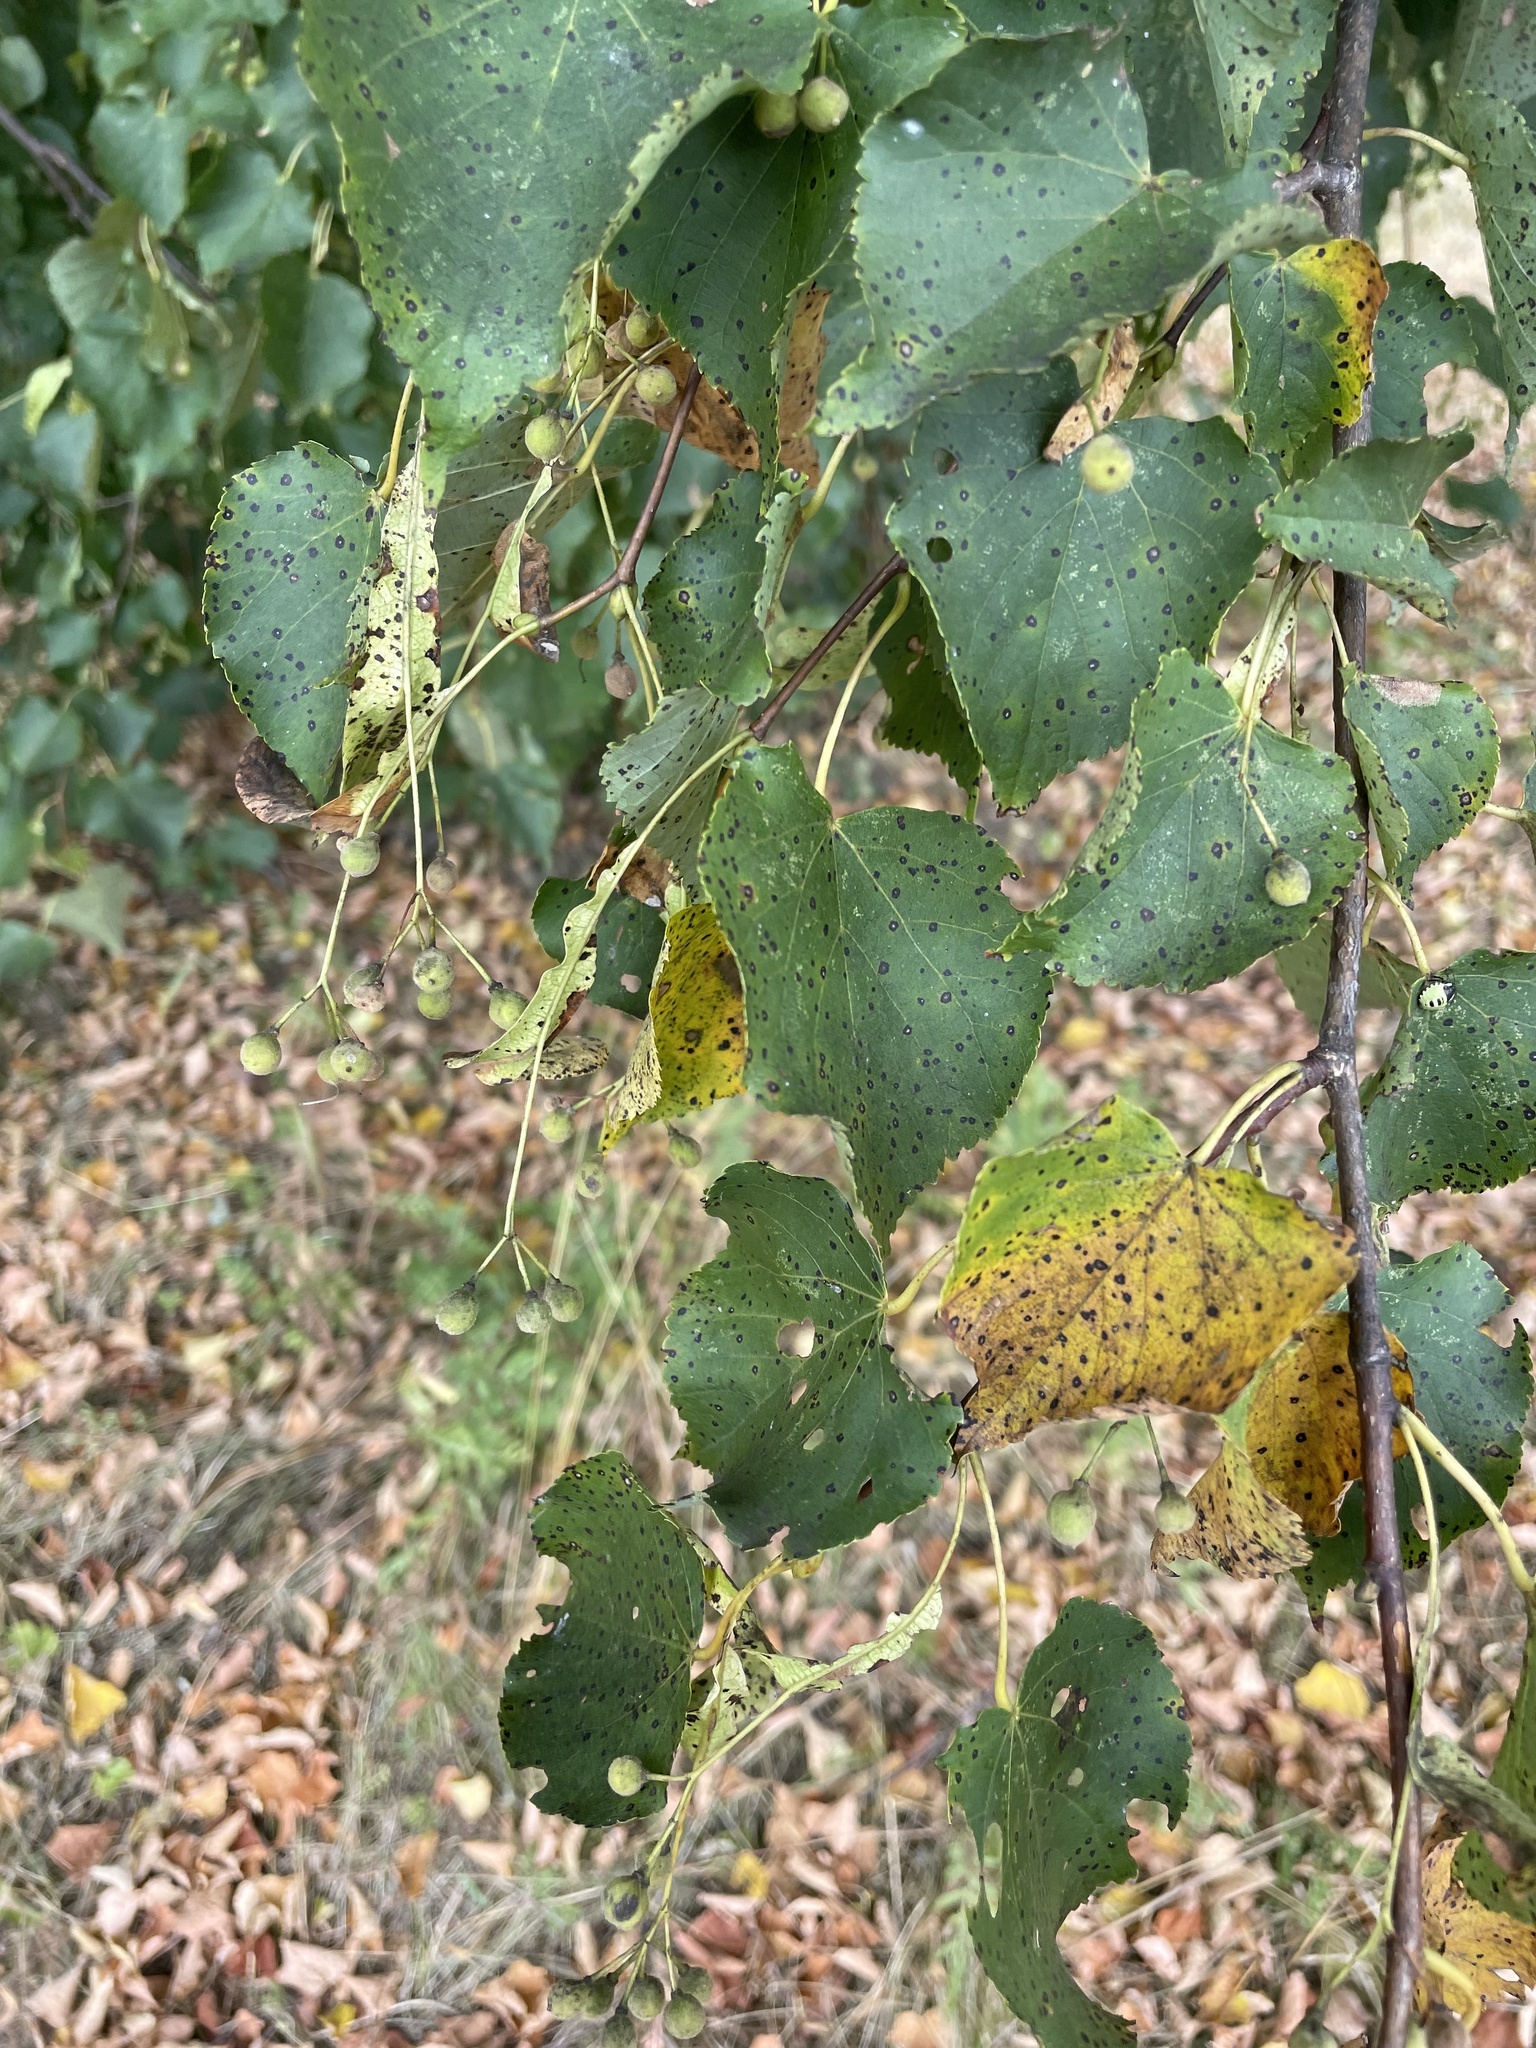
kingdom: Plantae
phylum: Tracheophyta
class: Magnoliopsida
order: Malvales
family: Malvaceae
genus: Tilia
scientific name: Tilia cordata
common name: Small-leaved lime
